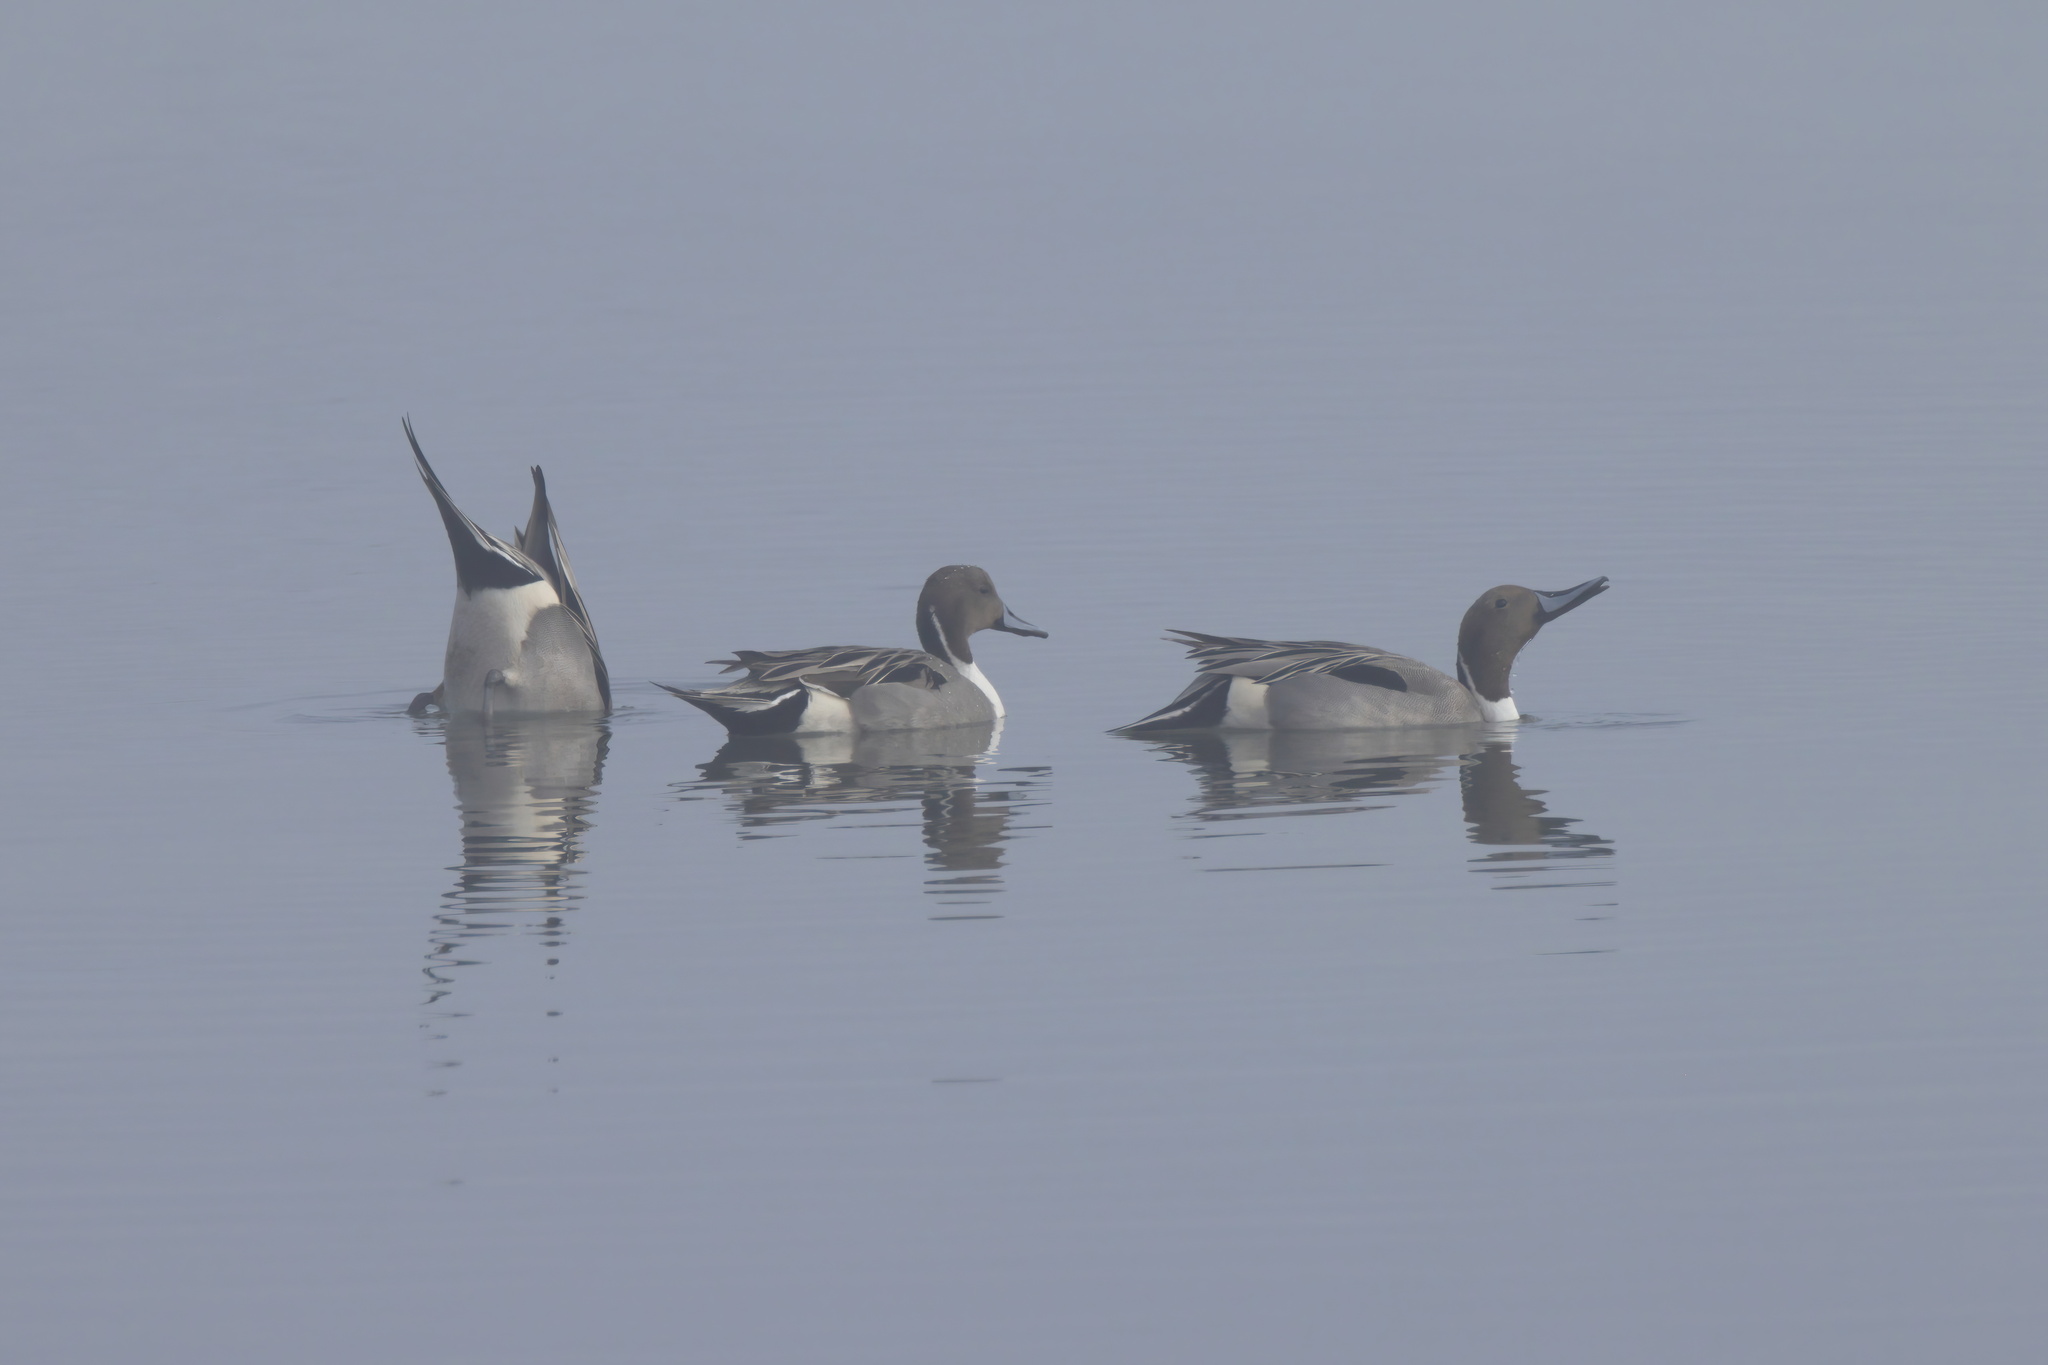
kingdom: Animalia
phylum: Chordata
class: Aves
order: Anseriformes
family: Anatidae
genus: Anas
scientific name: Anas acuta
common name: Northern pintail
